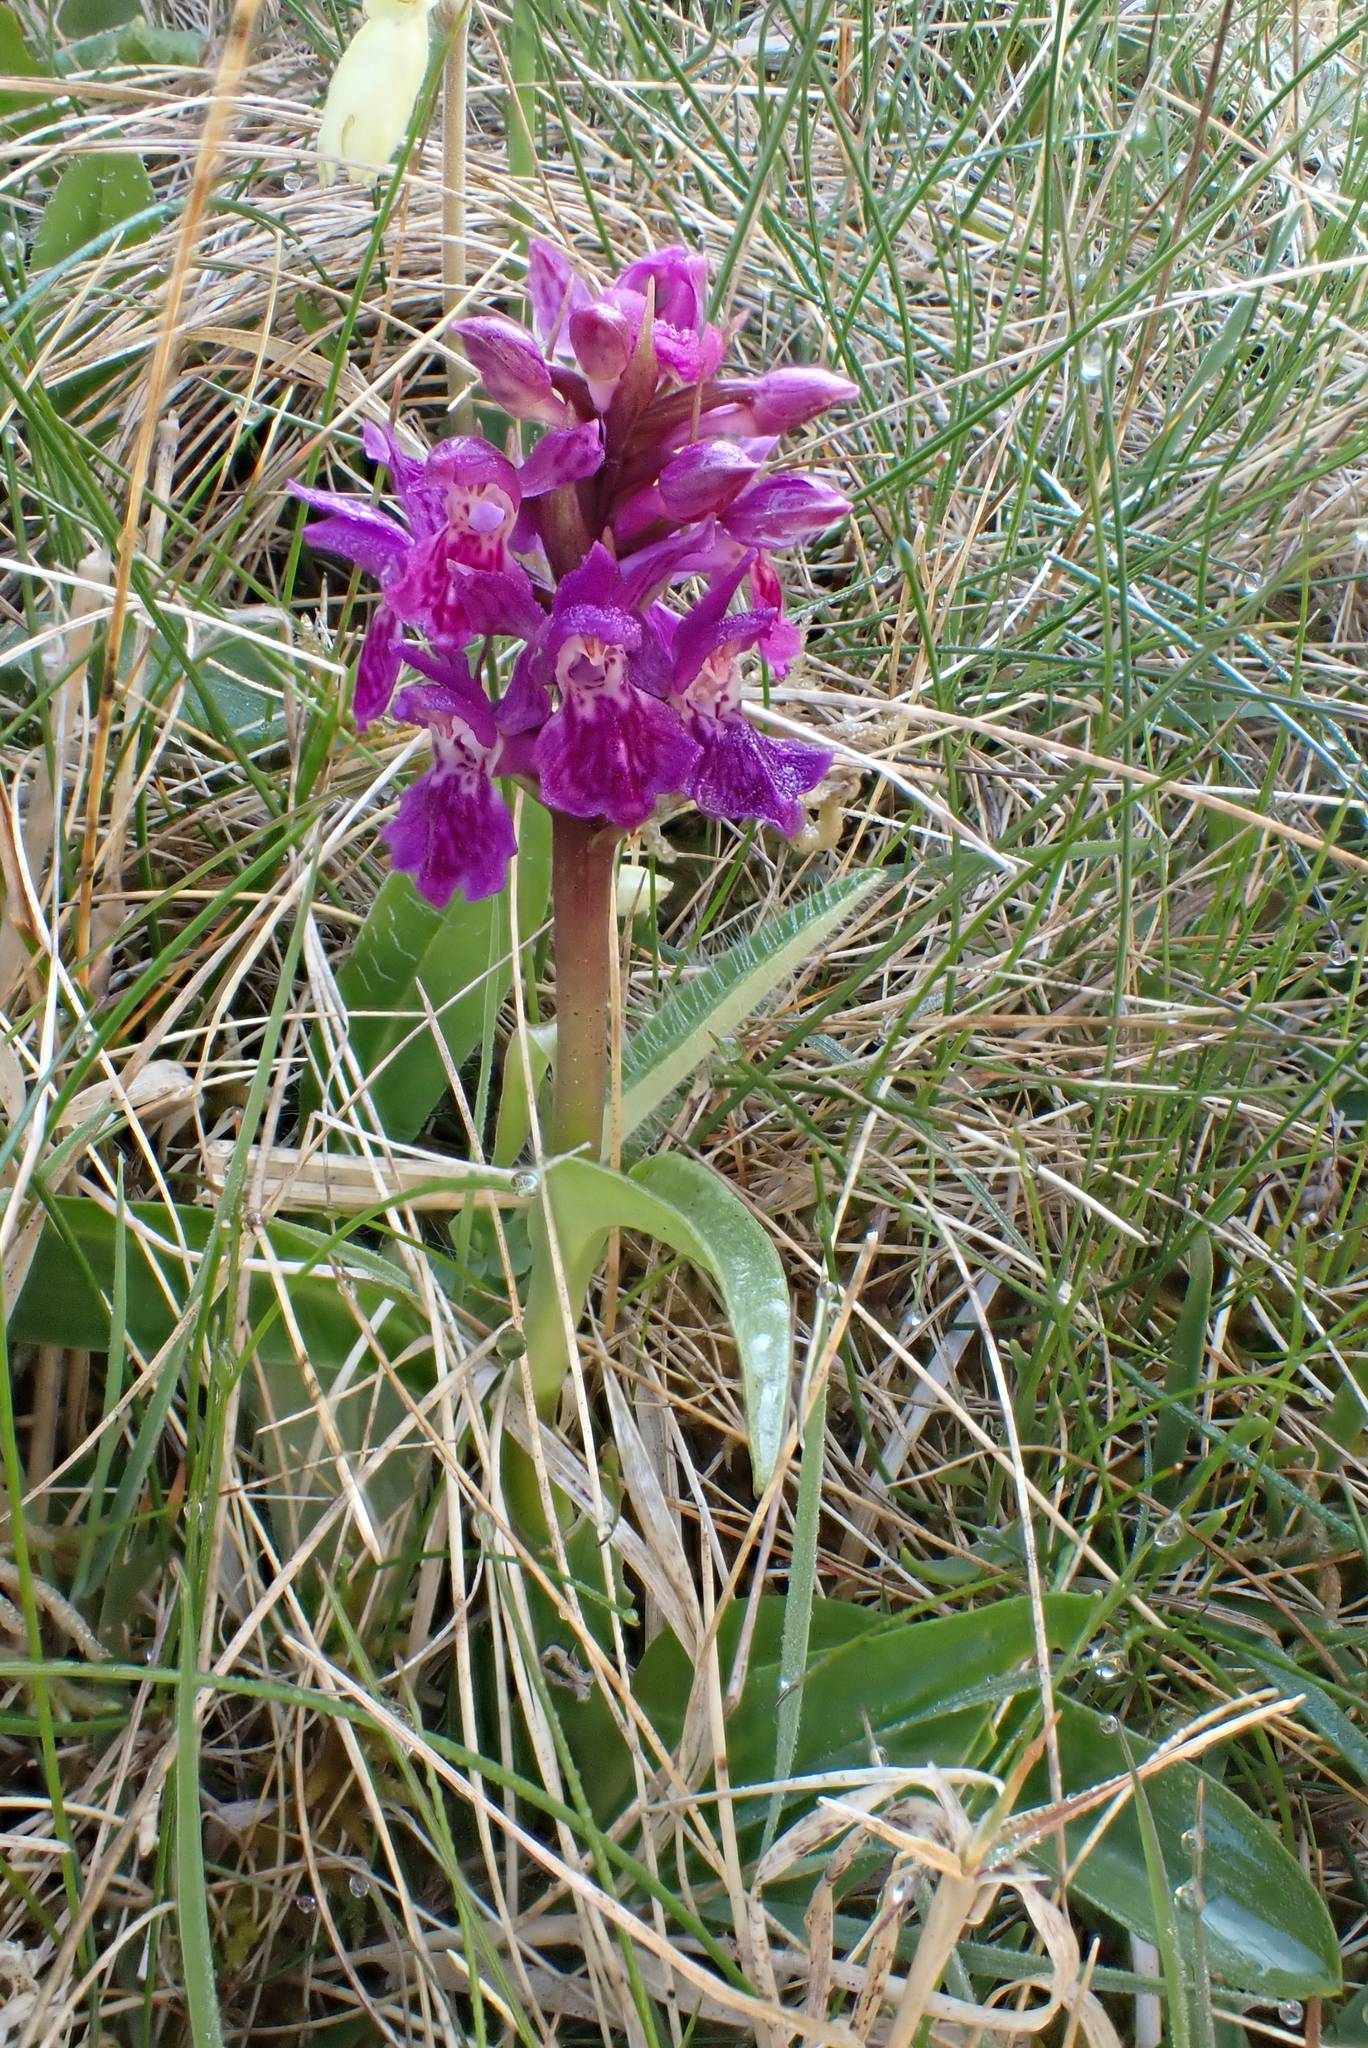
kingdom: Plantae
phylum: Tracheophyta
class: Liliopsida
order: Asparagales
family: Orchidaceae
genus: Dactylorhiza
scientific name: Dactylorhiza majalis
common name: Marsh orchid
